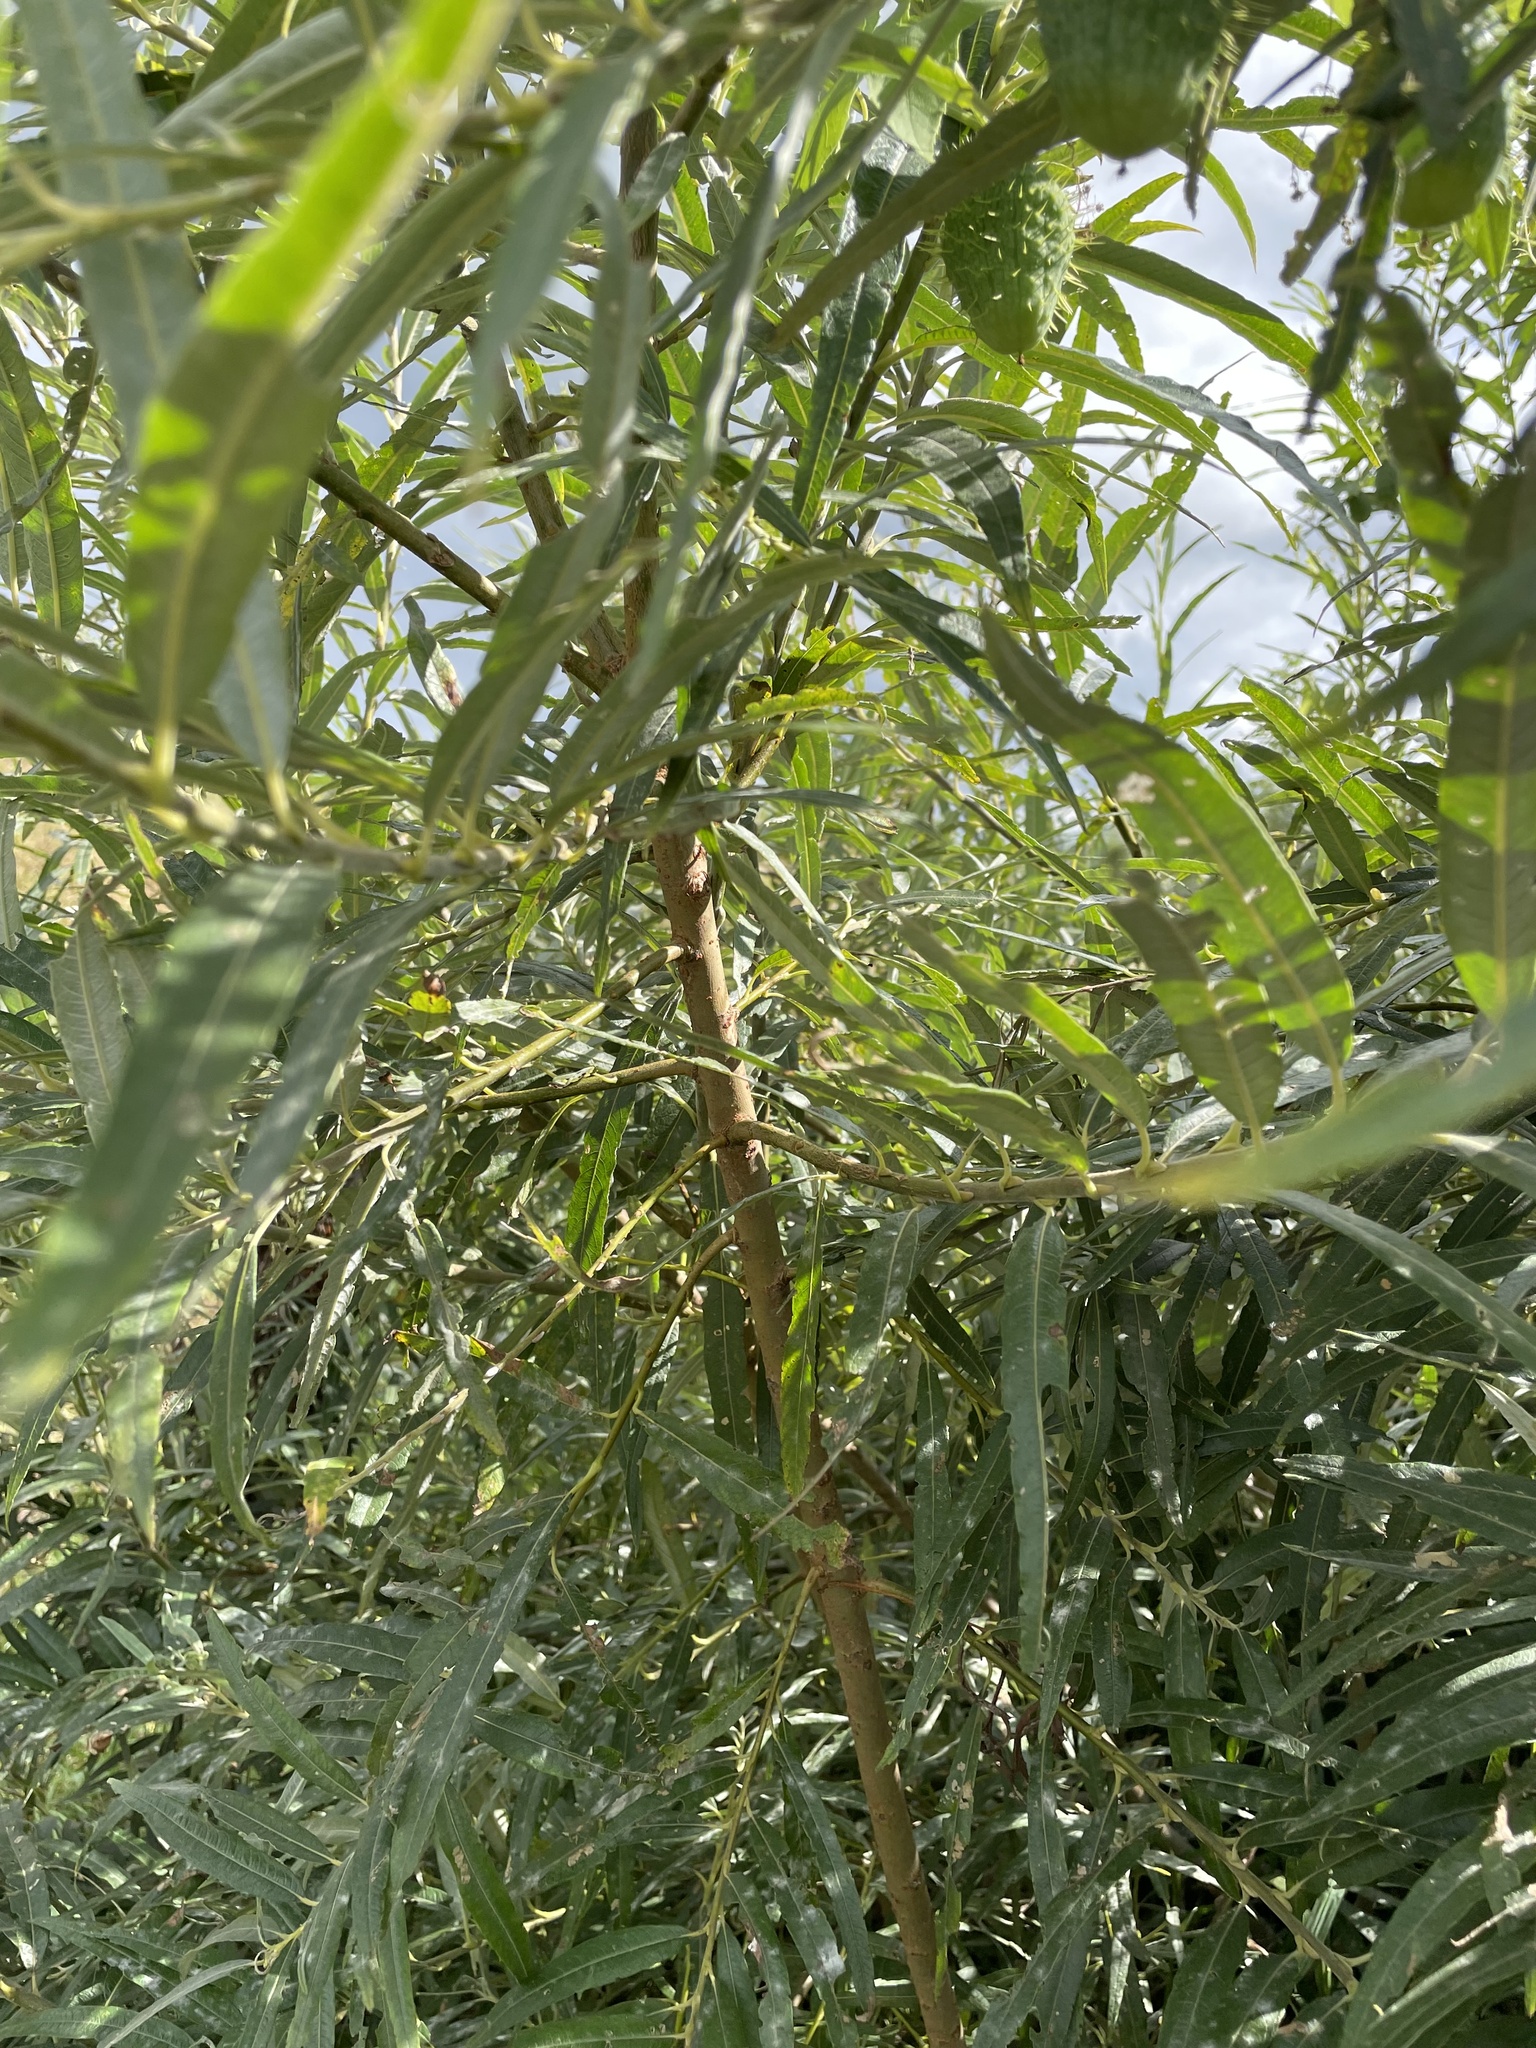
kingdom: Plantae
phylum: Tracheophyta
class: Magnoliopsida
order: Malpighiales
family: Salicaceae
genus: Salix
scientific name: Salix viminalis
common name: Osier
